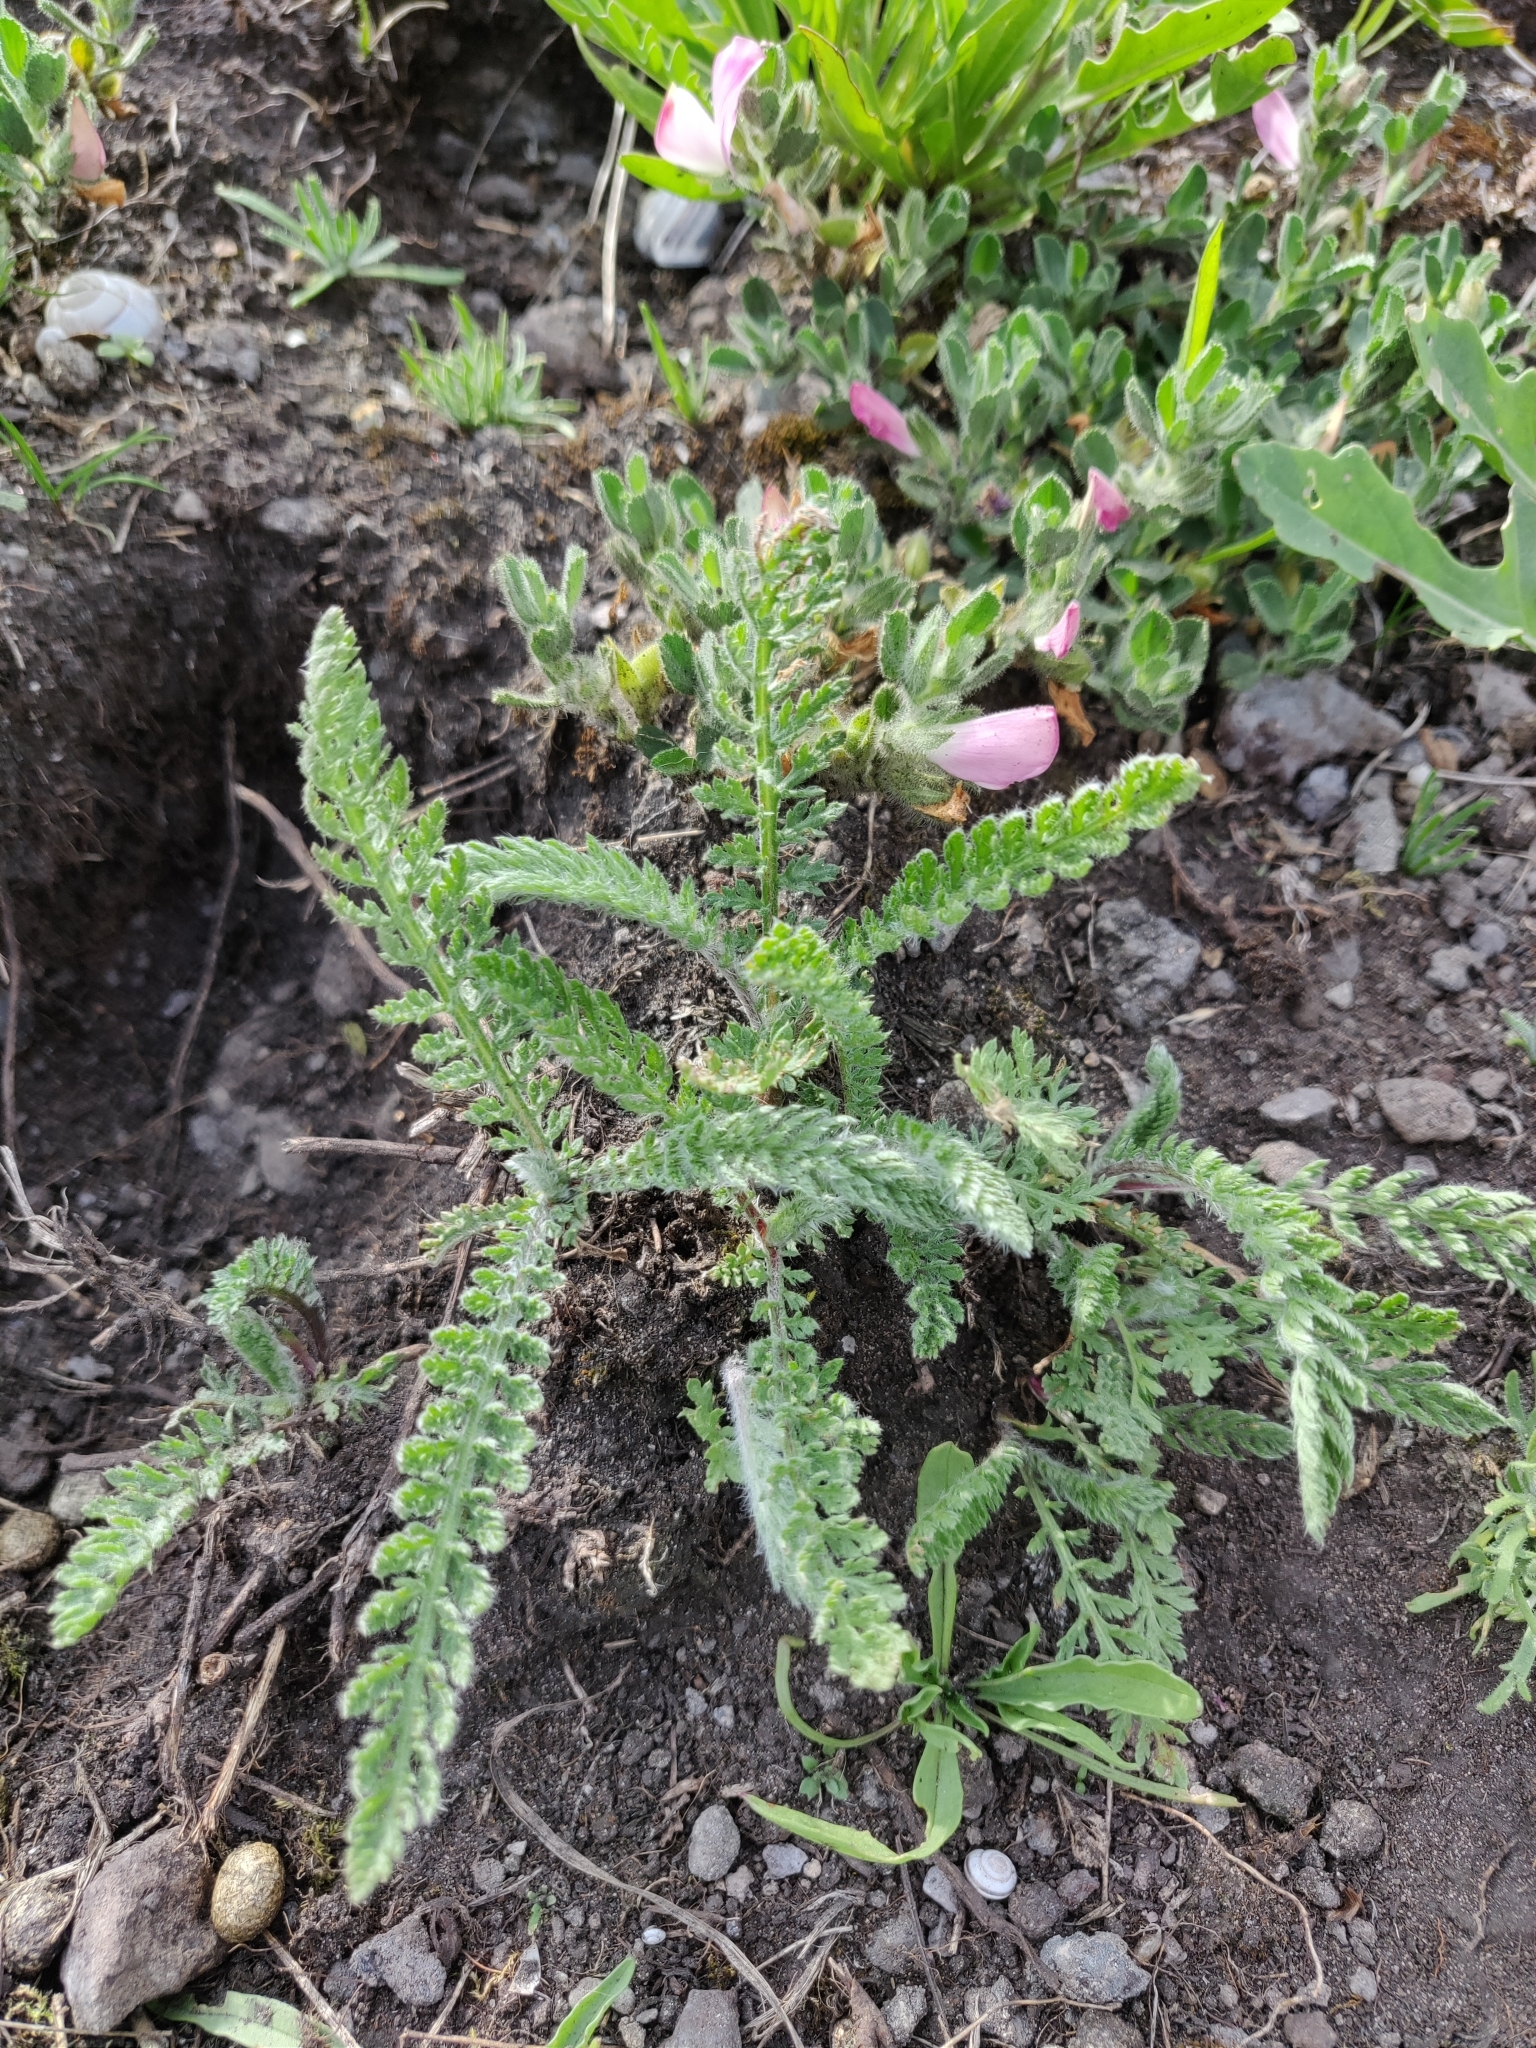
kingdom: Plantae
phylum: Tracheophyta
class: Magnoliopsida
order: Asterales
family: Asteraceae
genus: Achillea
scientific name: Achillea millefolium
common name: Yarrow
